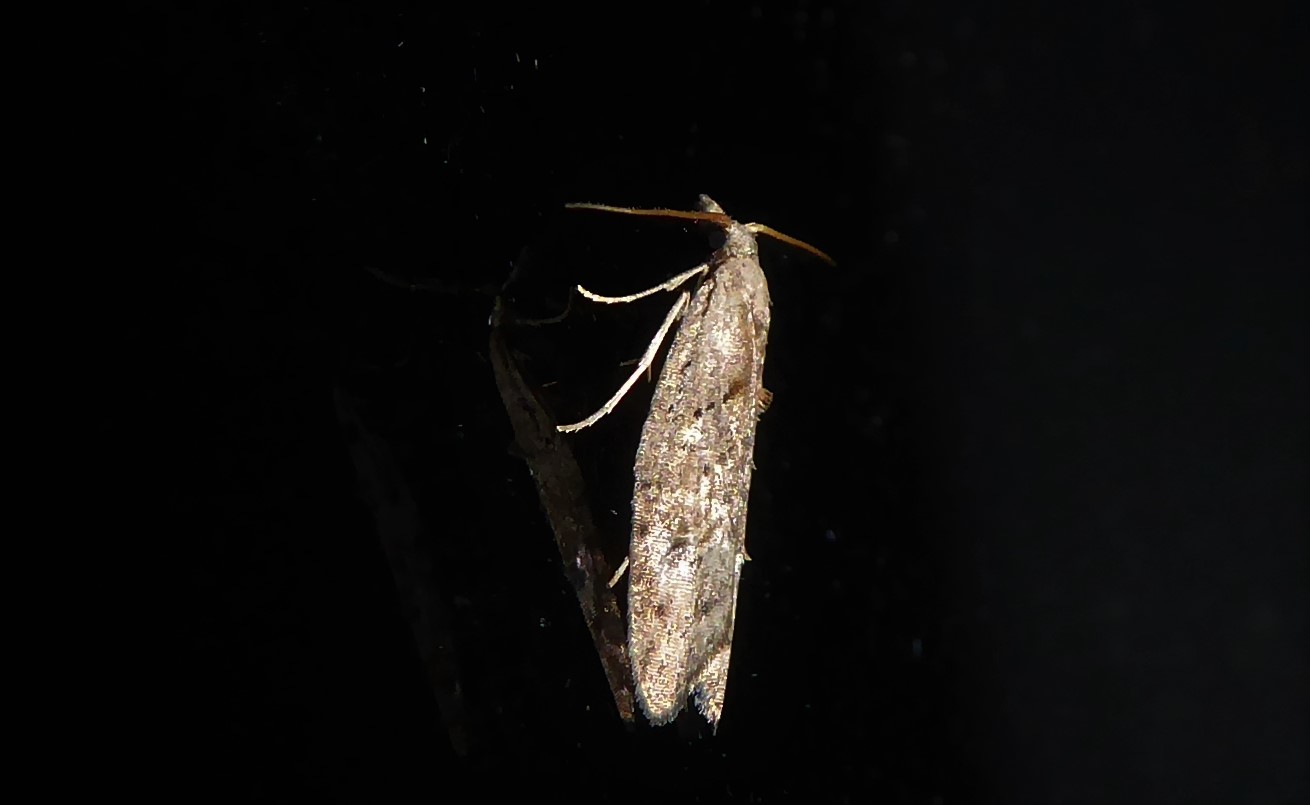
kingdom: Animalia
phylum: Arthropoda
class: Insecta
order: Lepidoptera
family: Carposinidae
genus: Carposina
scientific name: Carposina rubophaga
